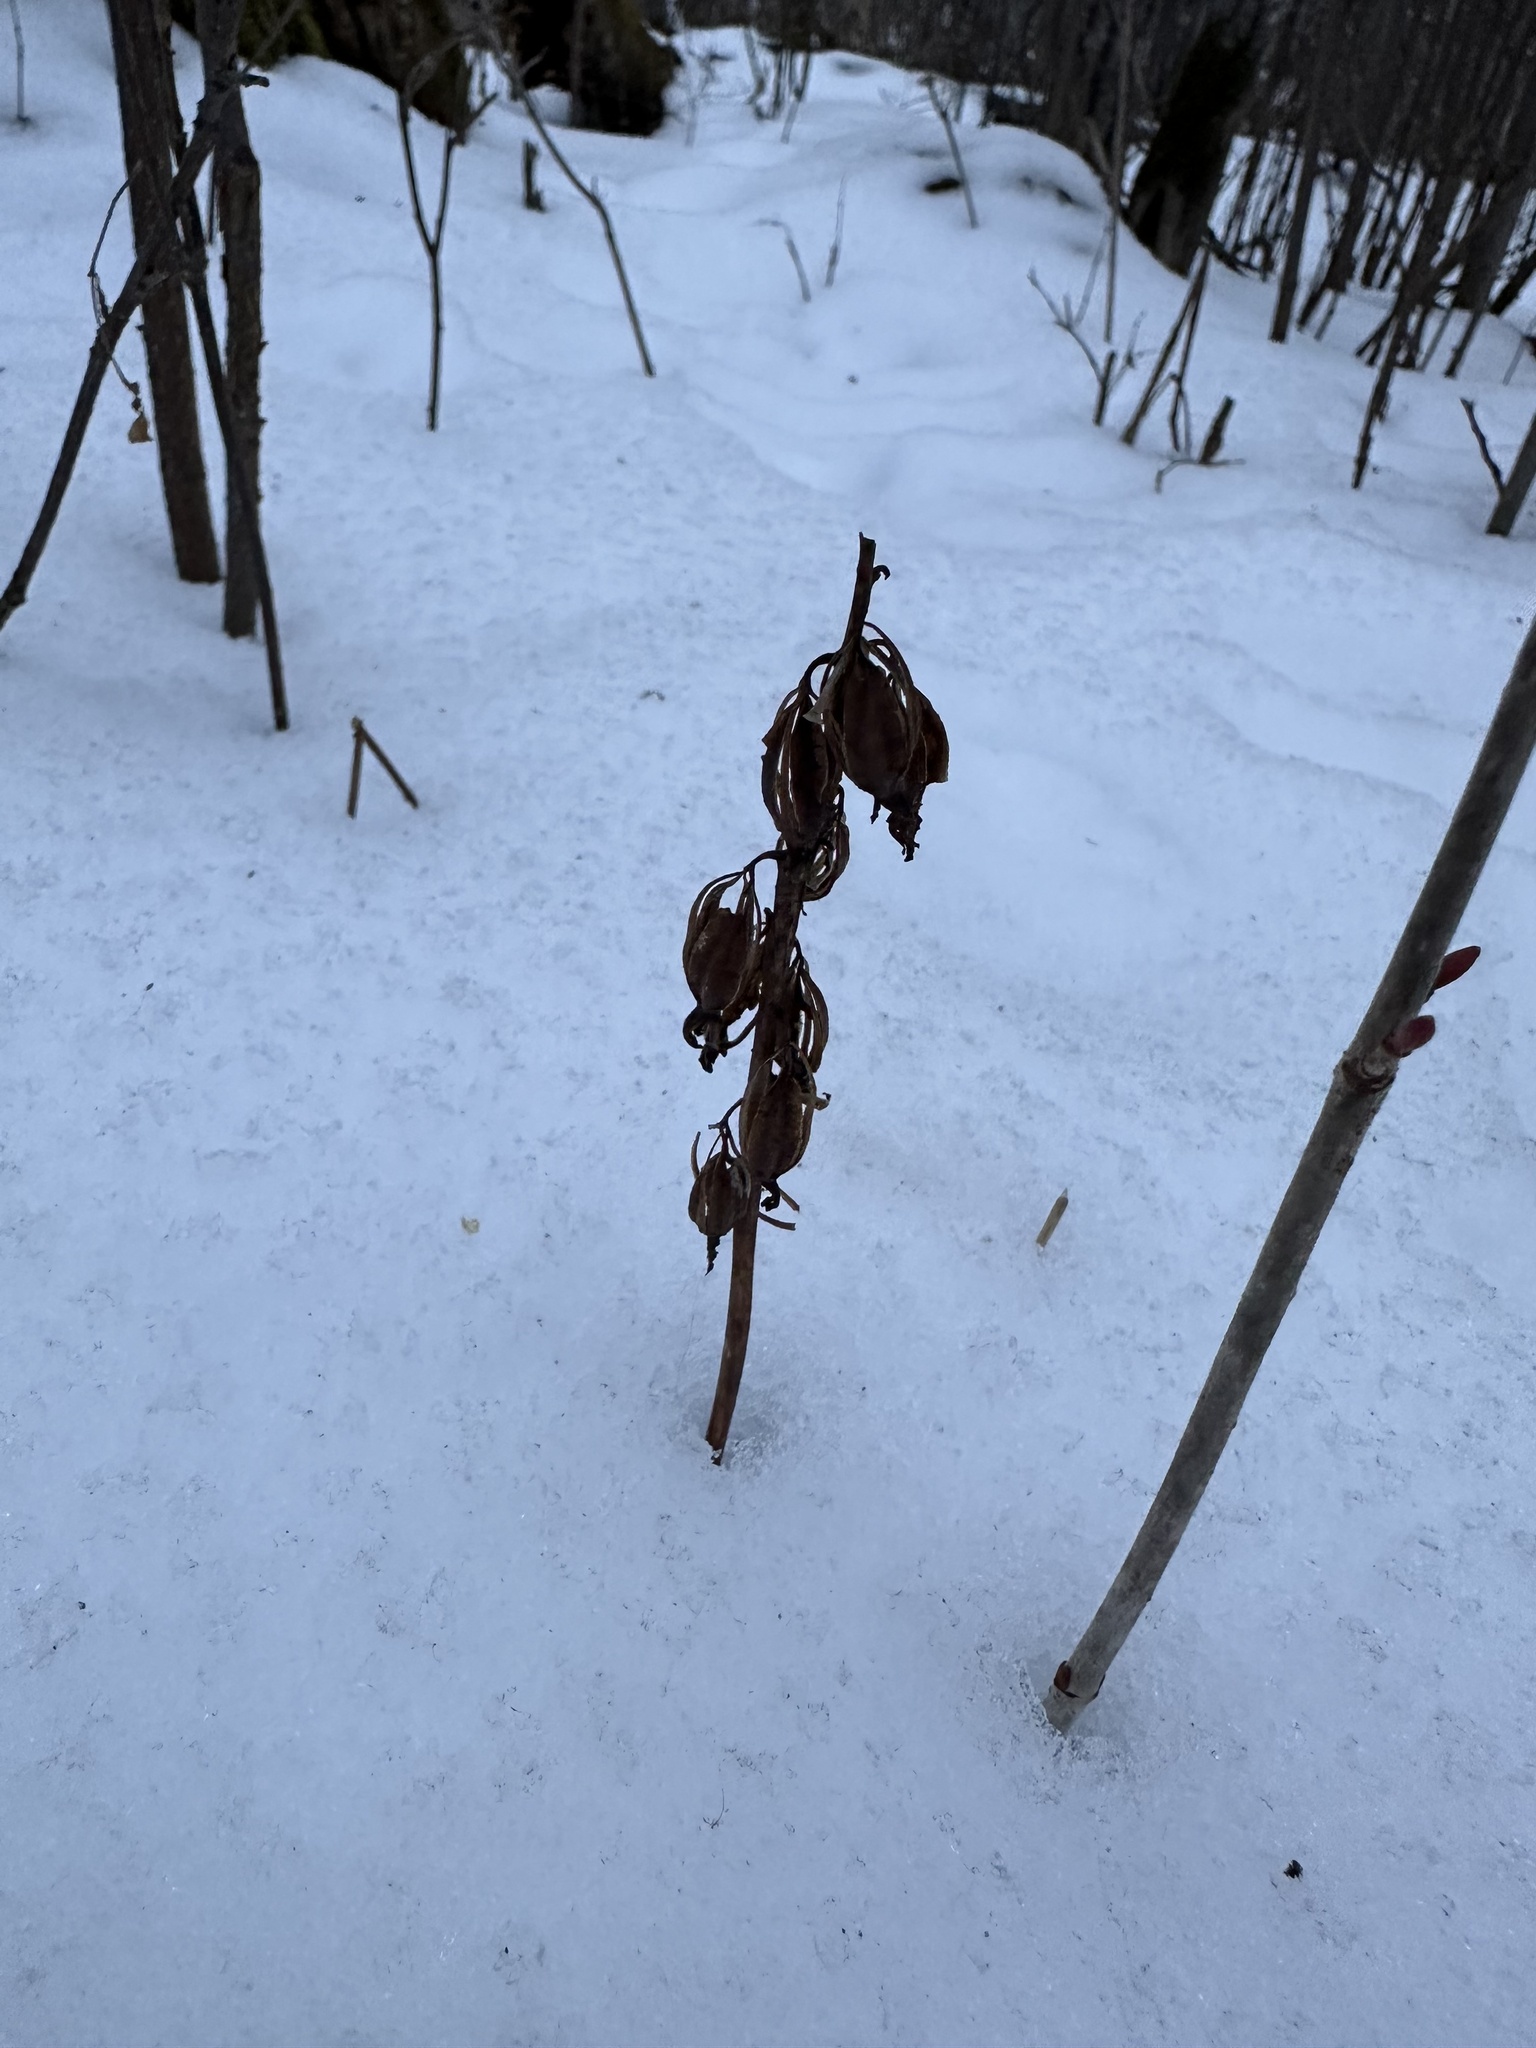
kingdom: Plantae
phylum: Tracheophyta
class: Liliopsida
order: Asparagales
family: Orchidaceae
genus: Corallorhiza
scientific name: Corallorhiza maculata
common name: Spotted coralroot
